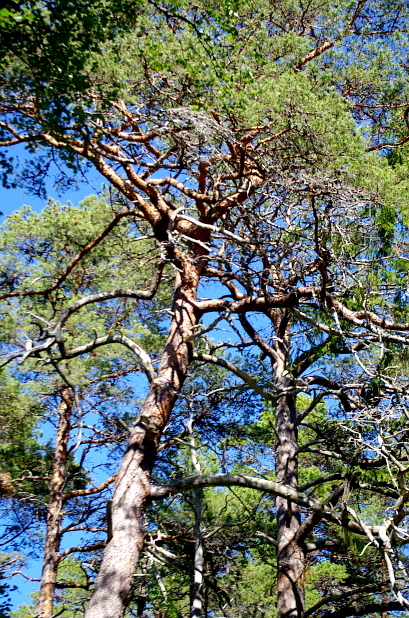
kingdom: Plantae
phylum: Tracheophyta
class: Pinopsida
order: Pinales
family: Pinaceae
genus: Pinus
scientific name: Pinus sylvestris
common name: Scots pine
